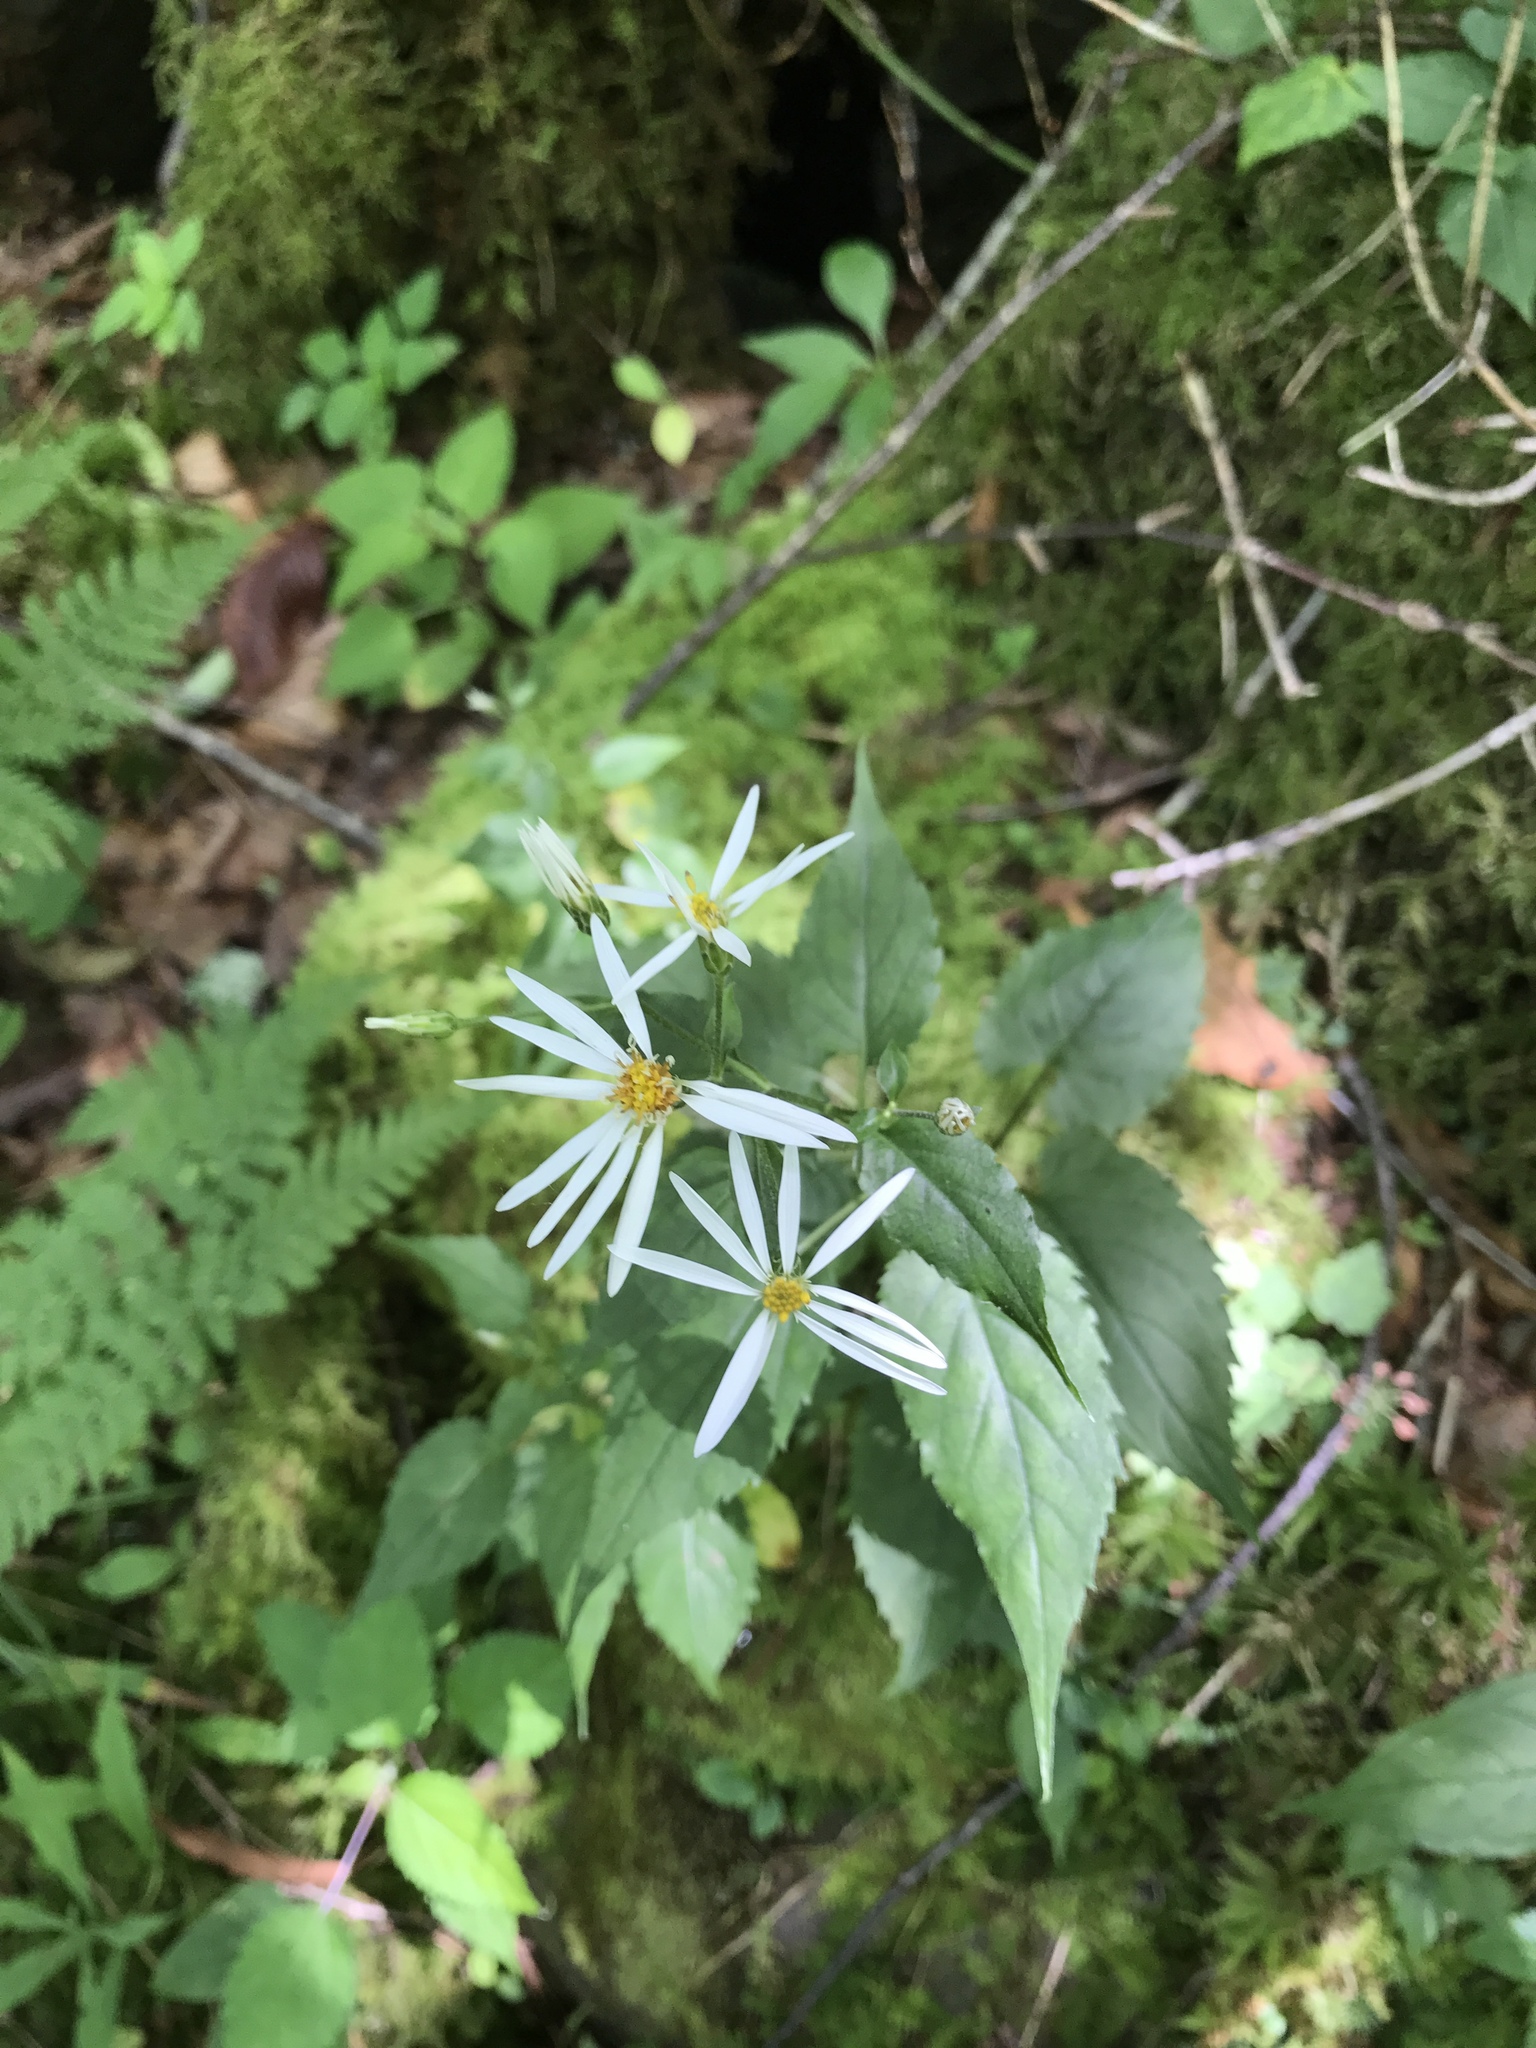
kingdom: Plantae
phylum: Tracheophyta
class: Magnoliopsida
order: Asterales
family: Asteraceae
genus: Eurybia
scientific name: Eurybia chlorolepis
